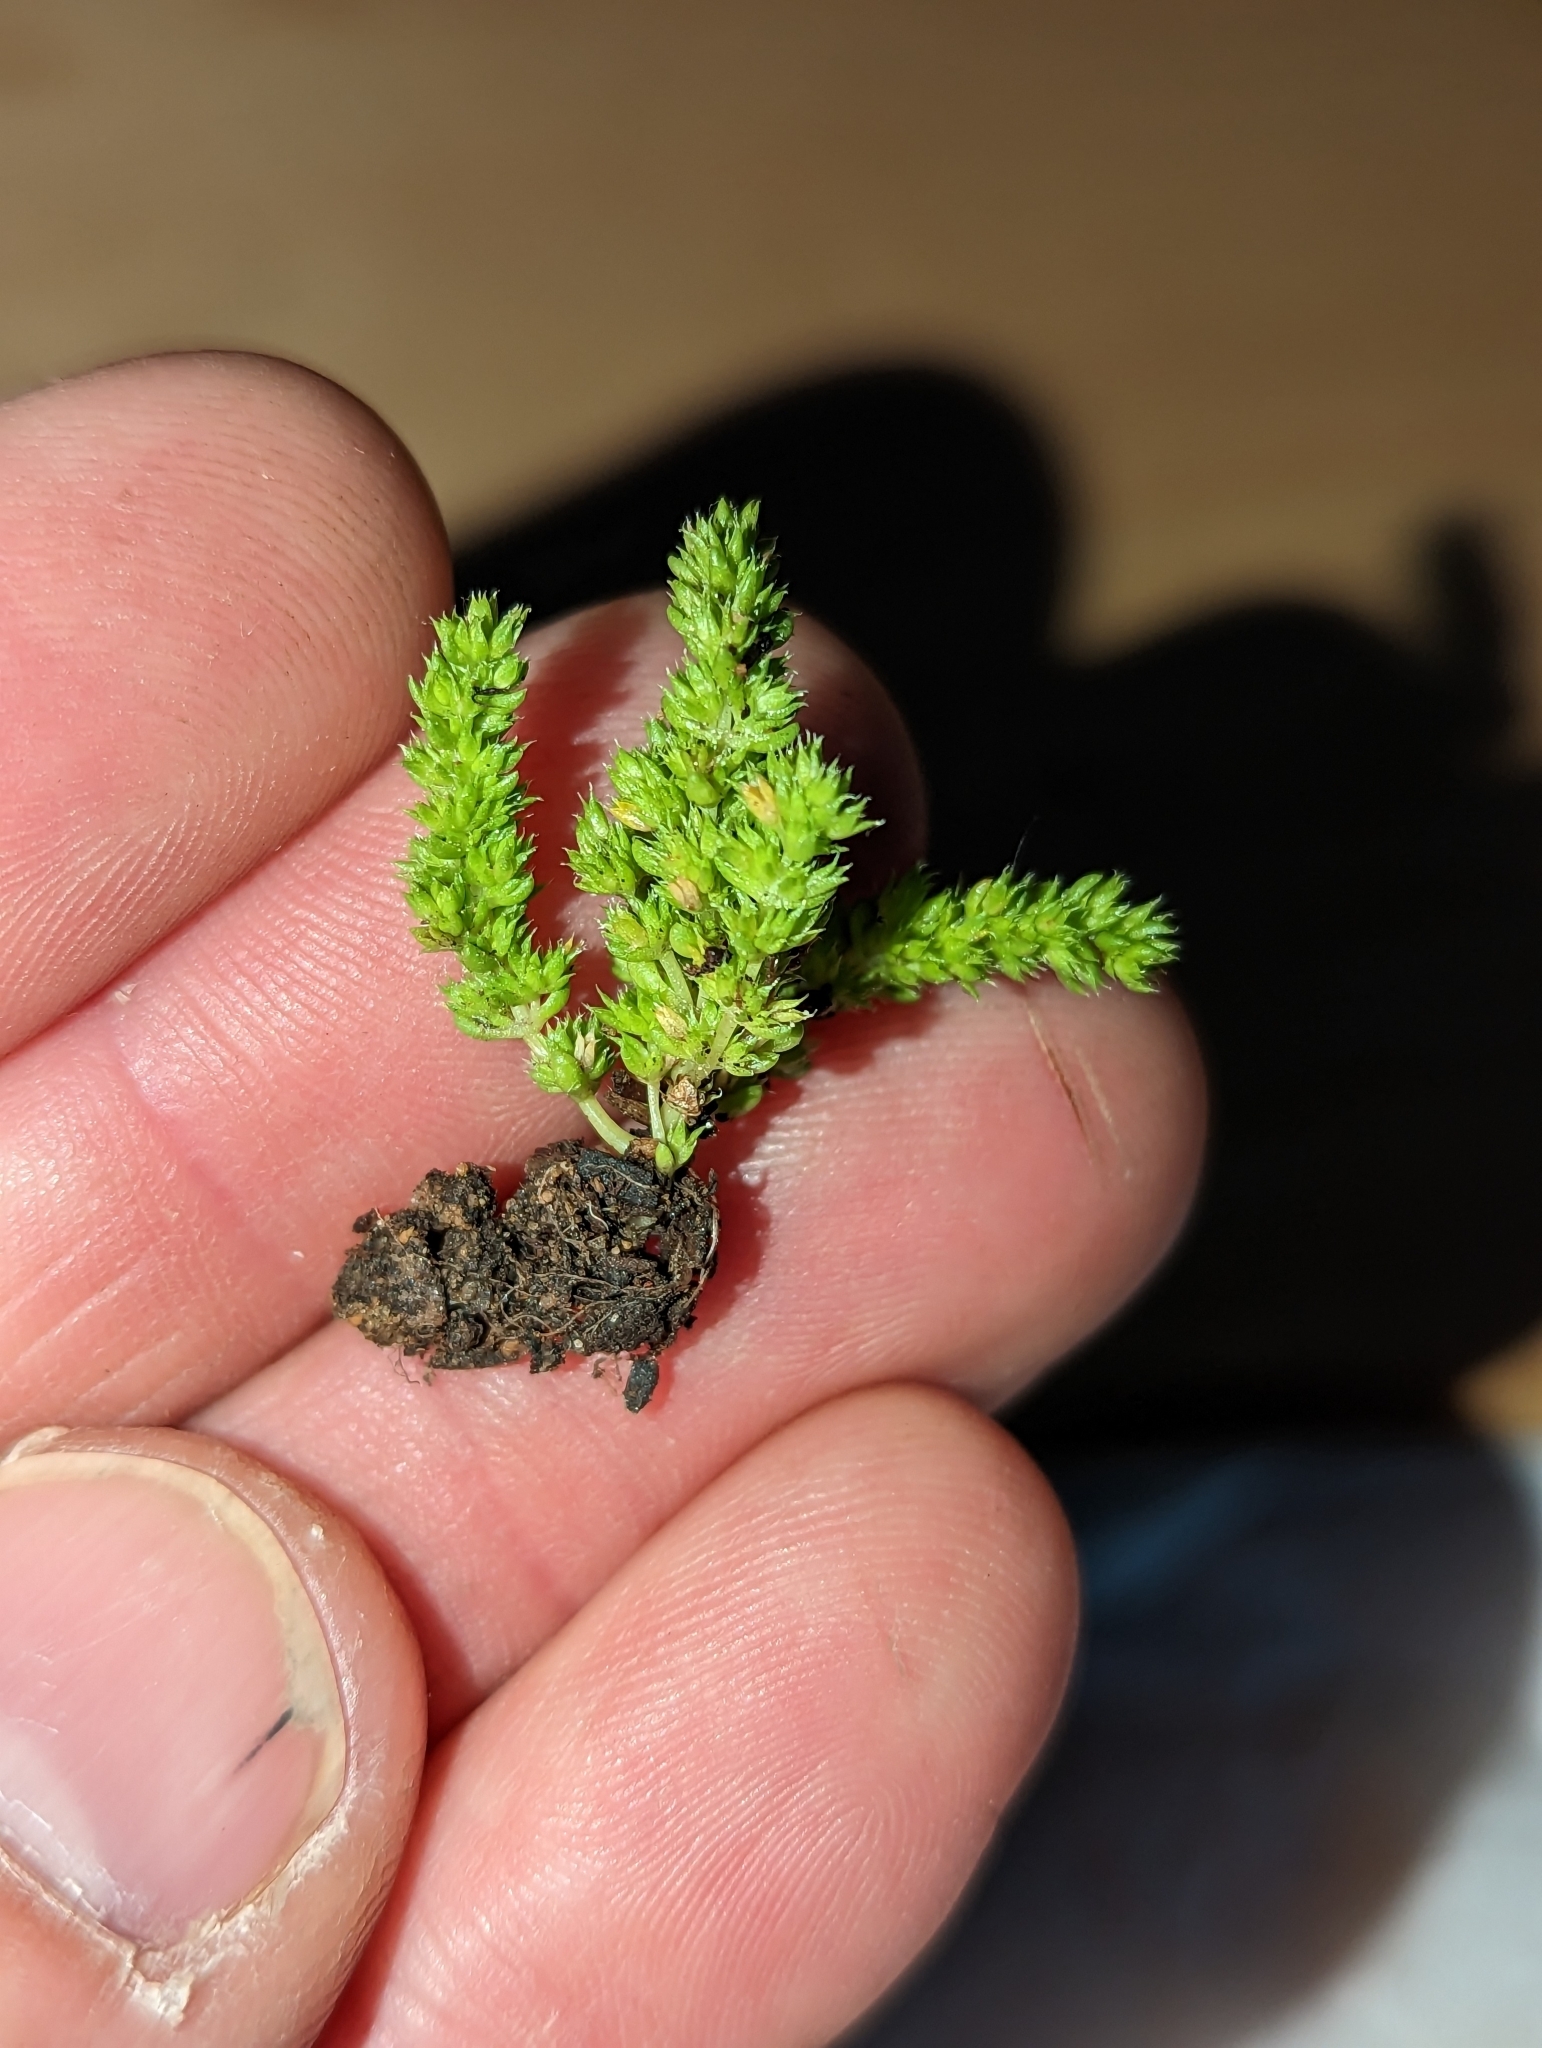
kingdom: Plantae
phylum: Tracheophyta
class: Magnoliopsida
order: Saxifragales
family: Crassulaceae
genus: Crassula
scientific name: Crassula tillaea
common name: Mossy stonecrop
